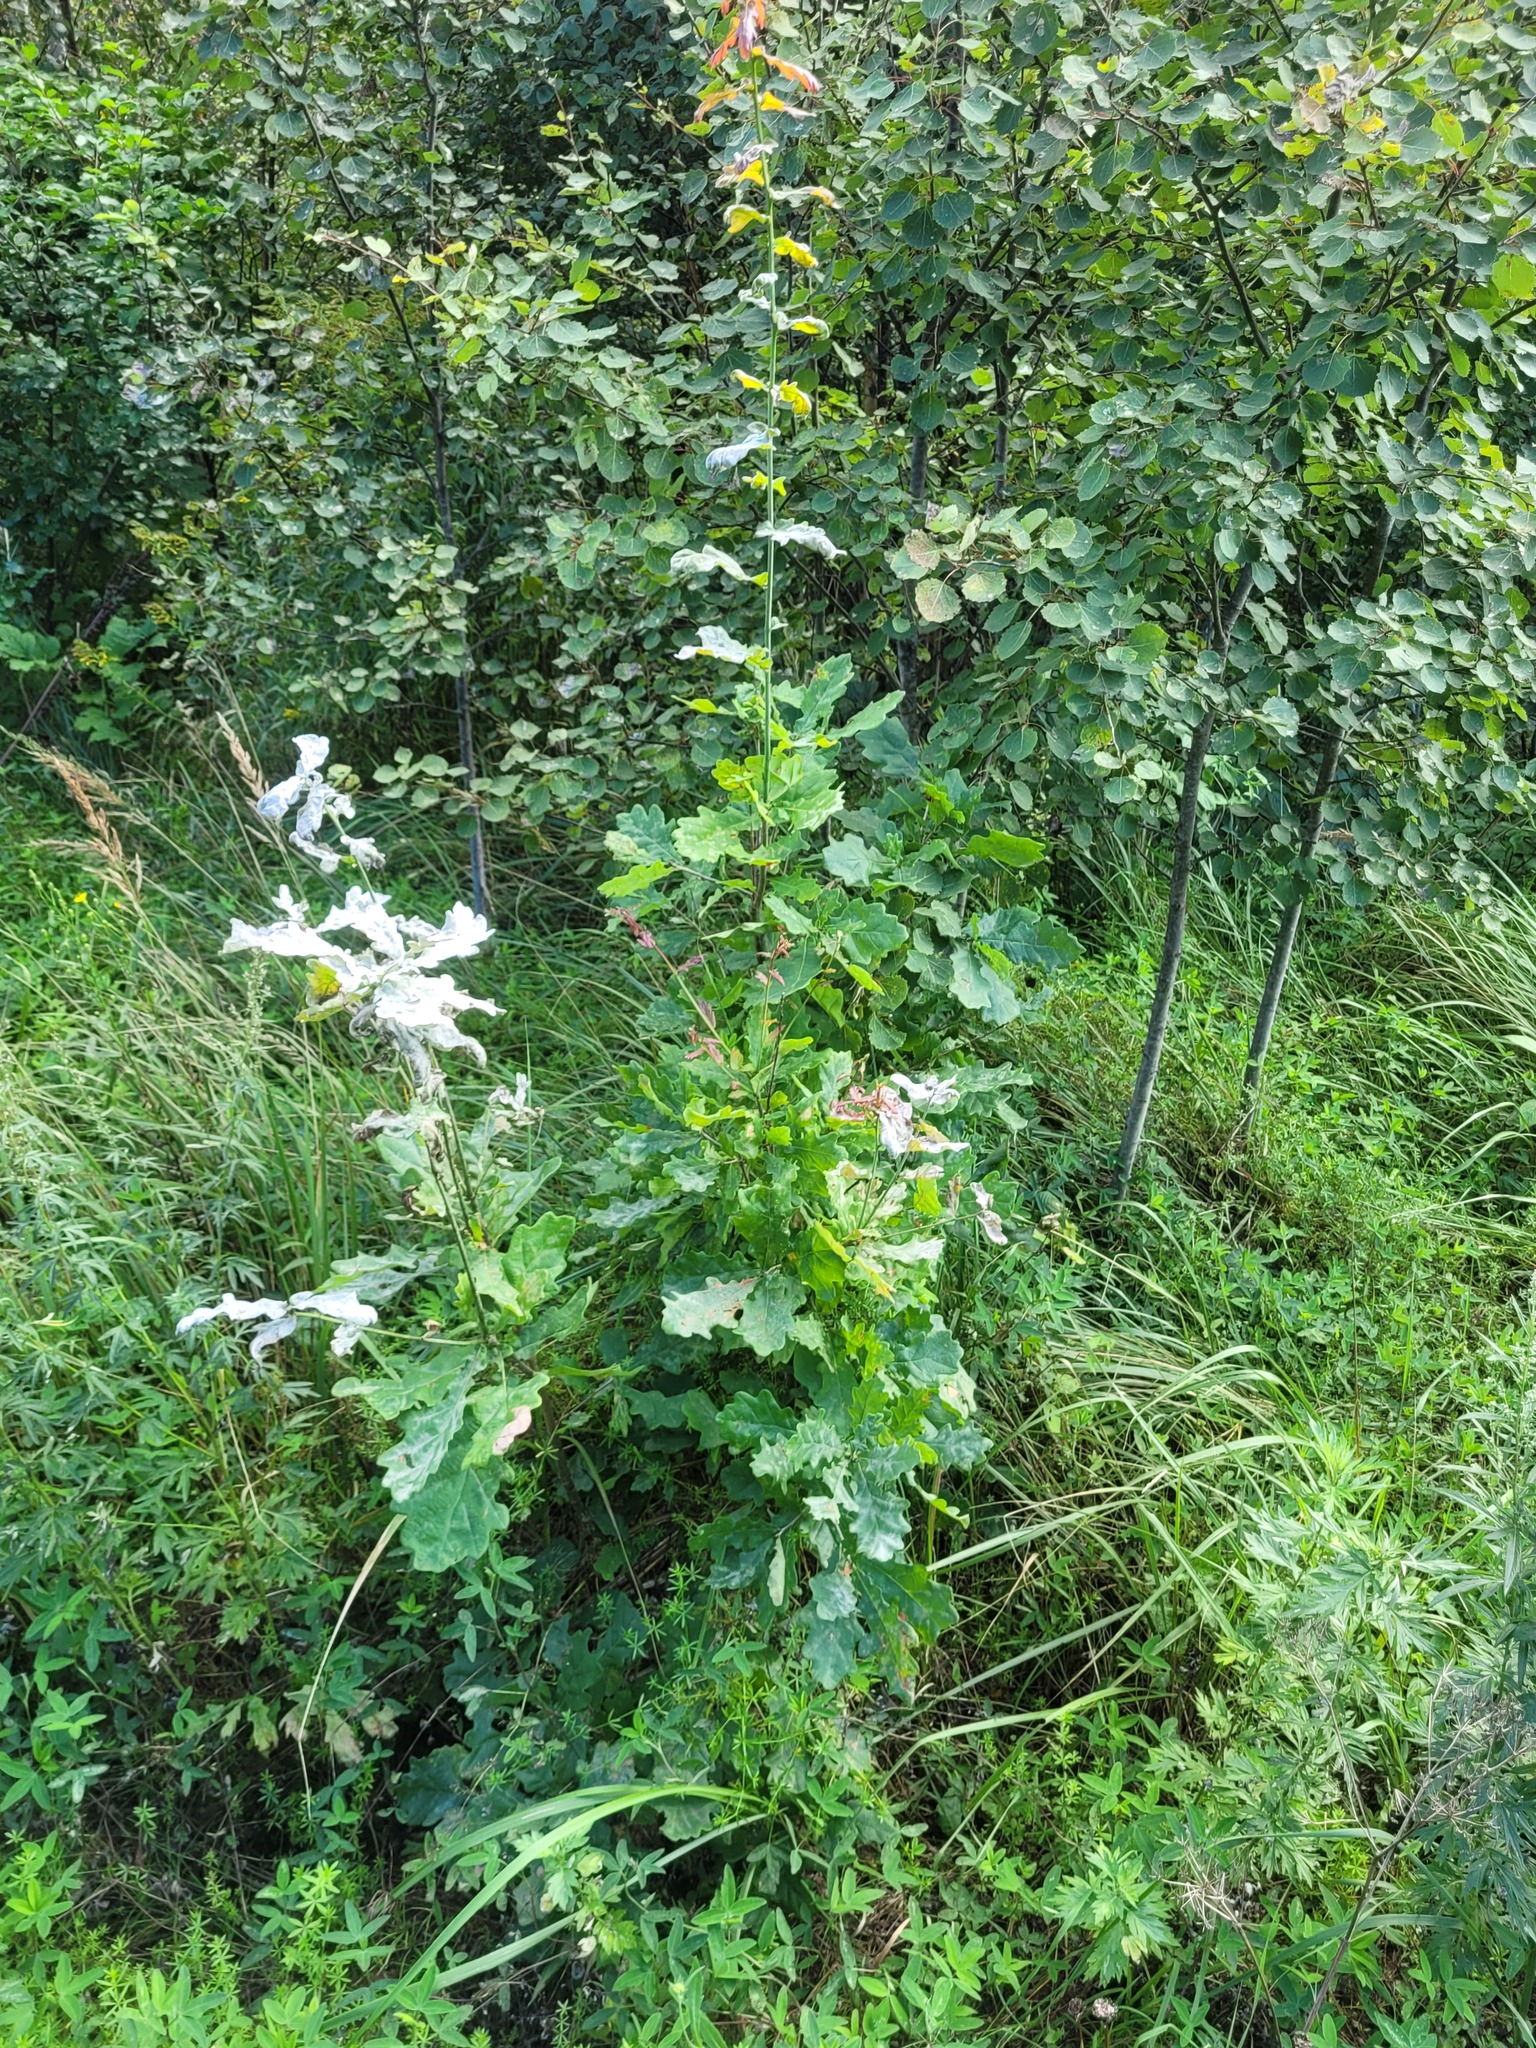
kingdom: Plantae
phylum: Tracheophyta
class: Magnoliopsida
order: Fagales
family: Fagaceae
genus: Quercus
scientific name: Quercus robur
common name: Pedunculate oak
